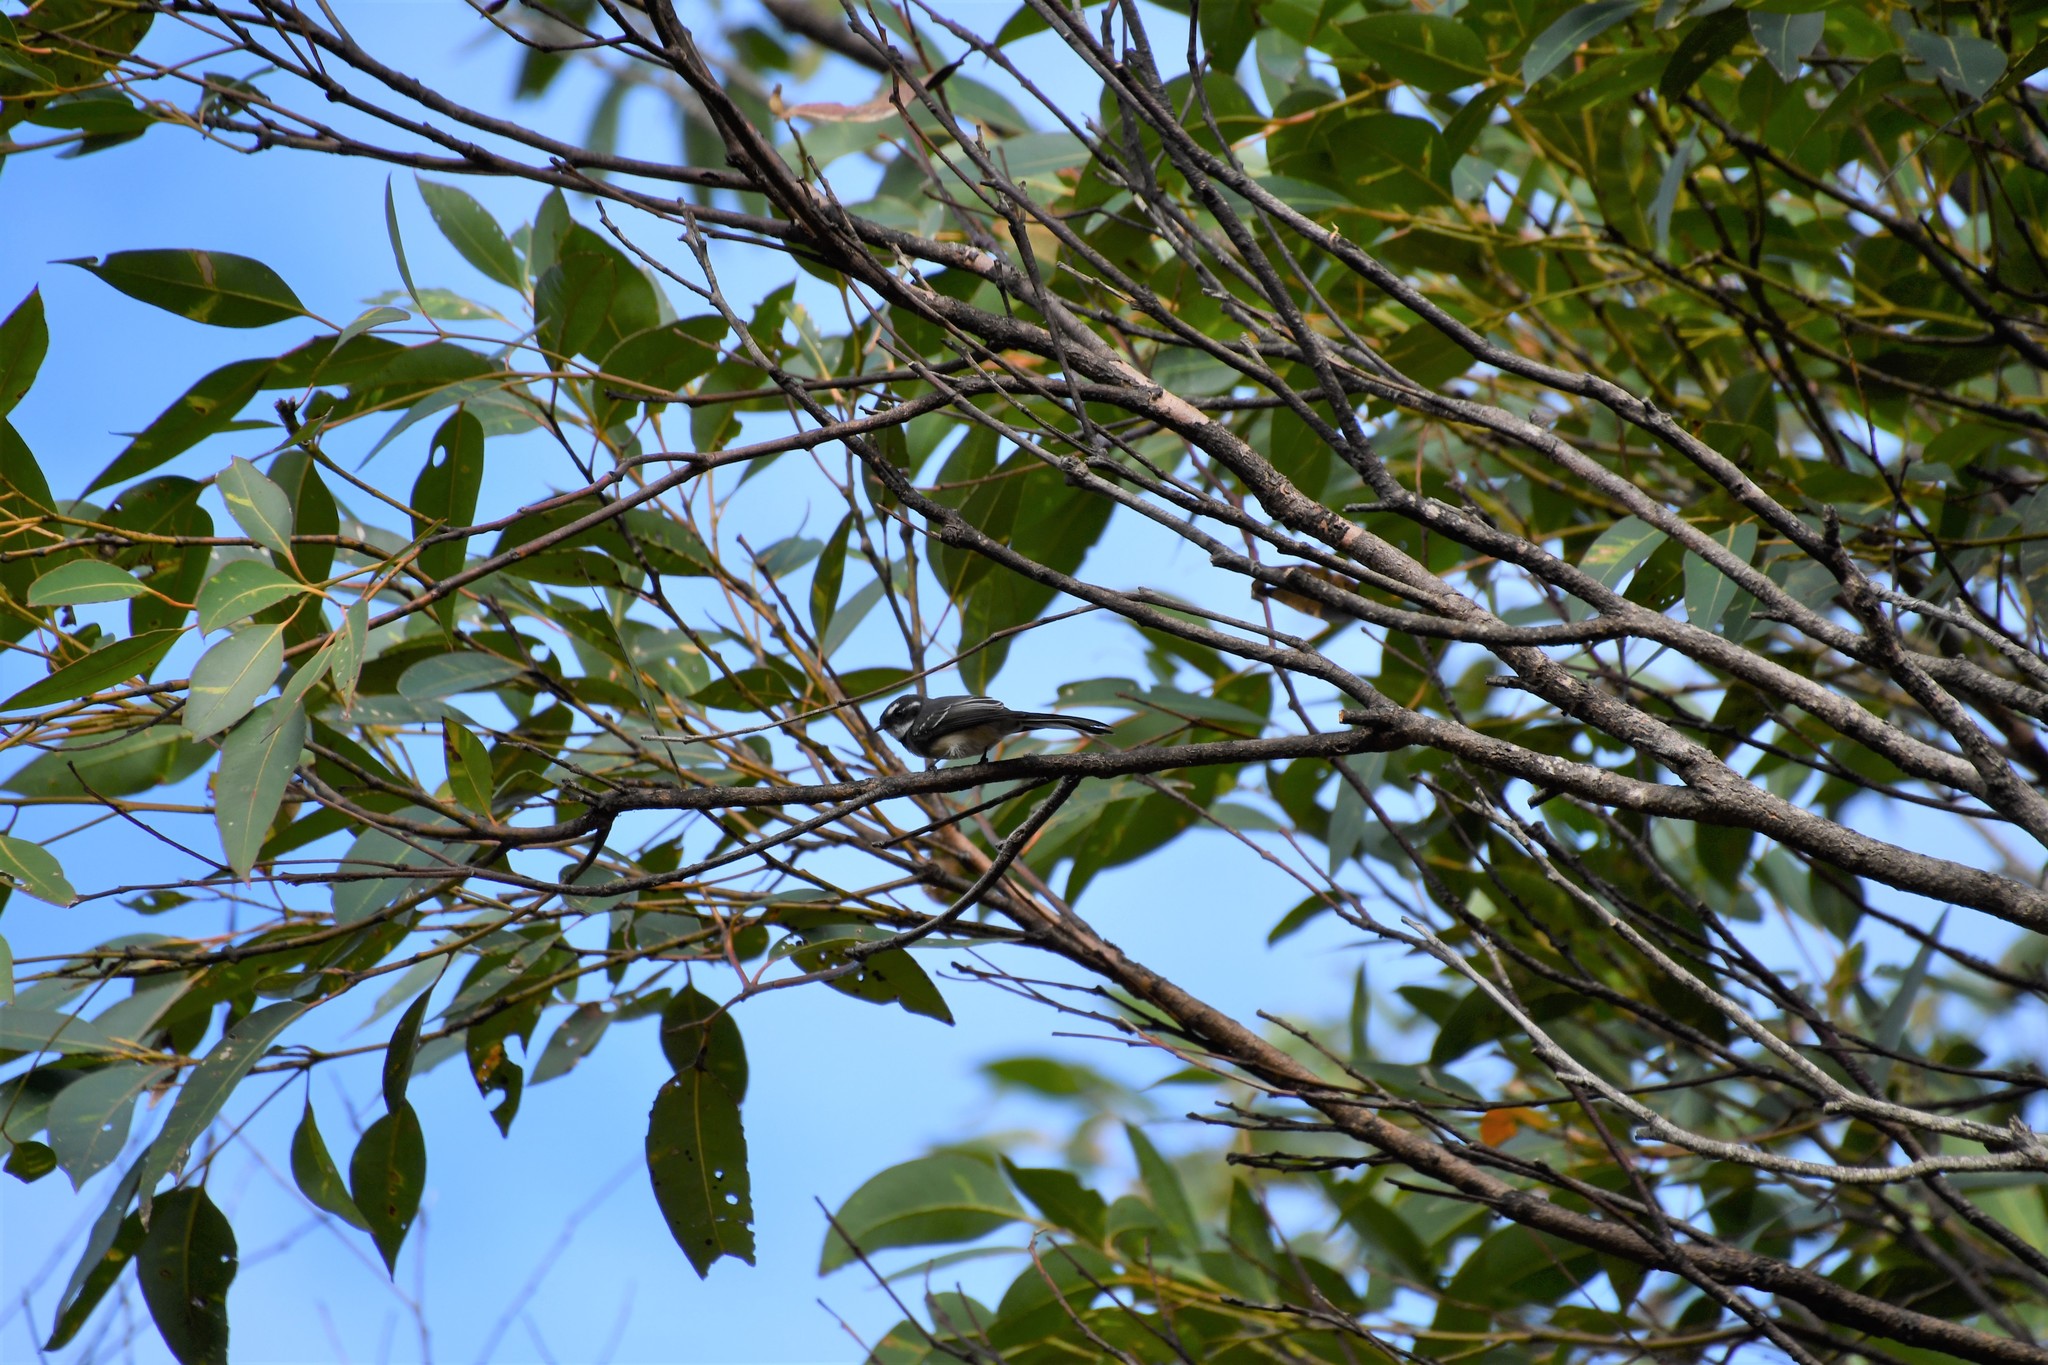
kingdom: Animalia
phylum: Chordata
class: Aves
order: Passeriformes
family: Rhipiduridae
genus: Rhipidura
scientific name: Rhipidura albiscapa
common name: Grey fantail
